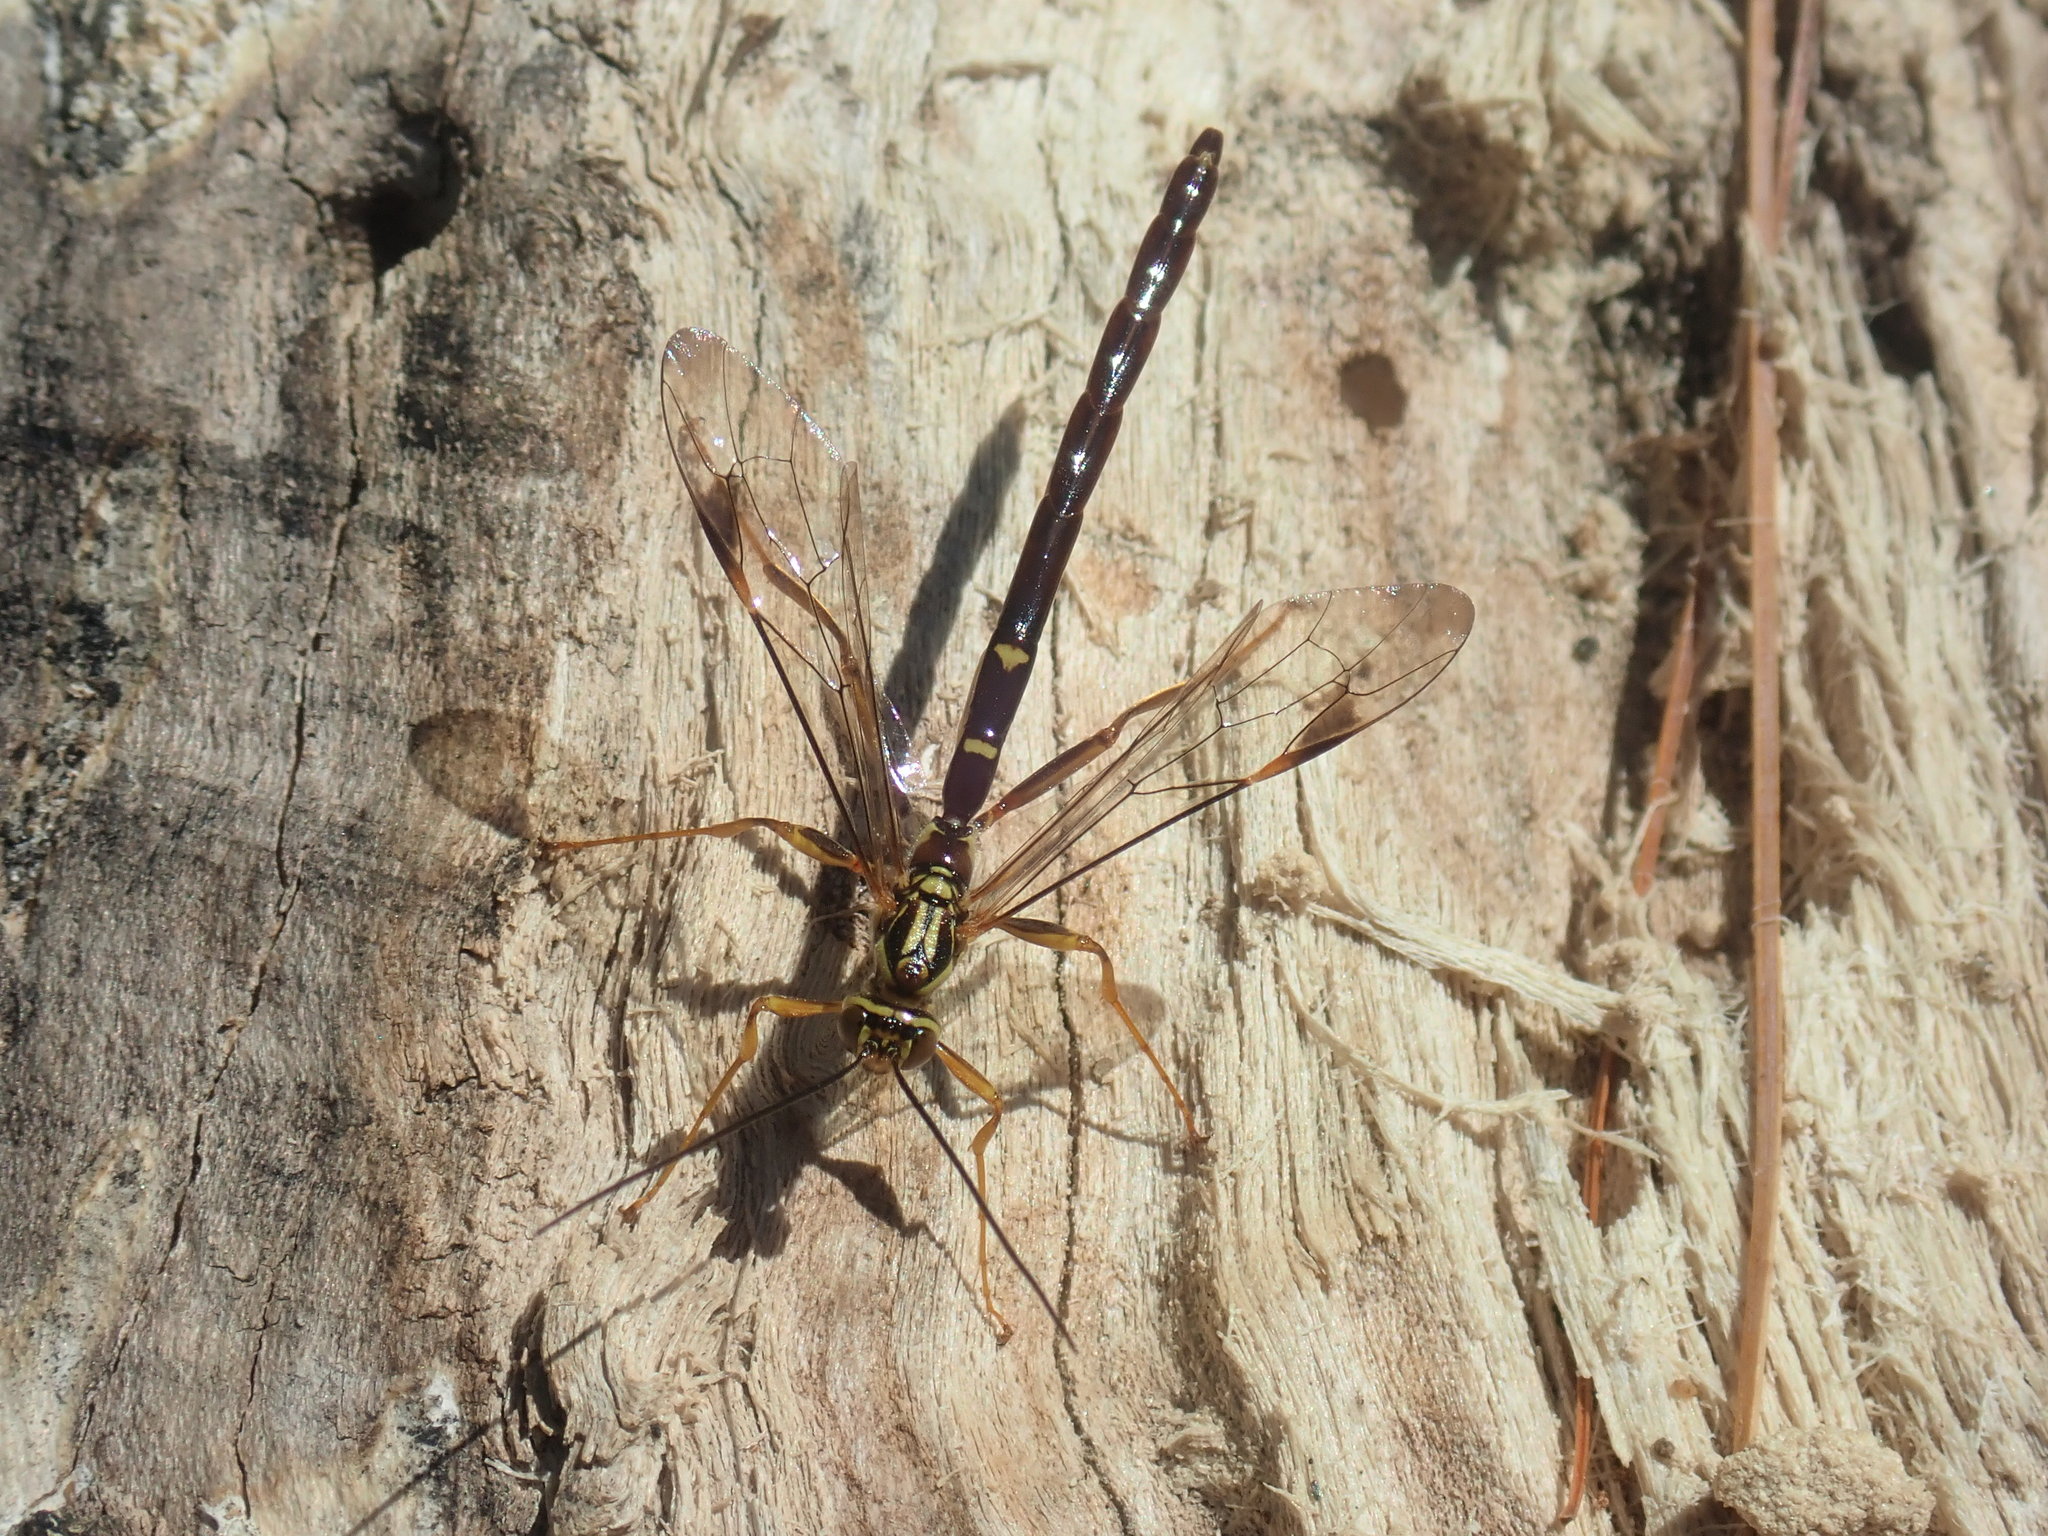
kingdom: Animalia
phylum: Arthropoda
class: Insecta
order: Hymenoptera
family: Ichneumonidae
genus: Megarhyssa
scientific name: Megarhyssa macrura
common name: Long-tailed giant ichneumonid wasp
